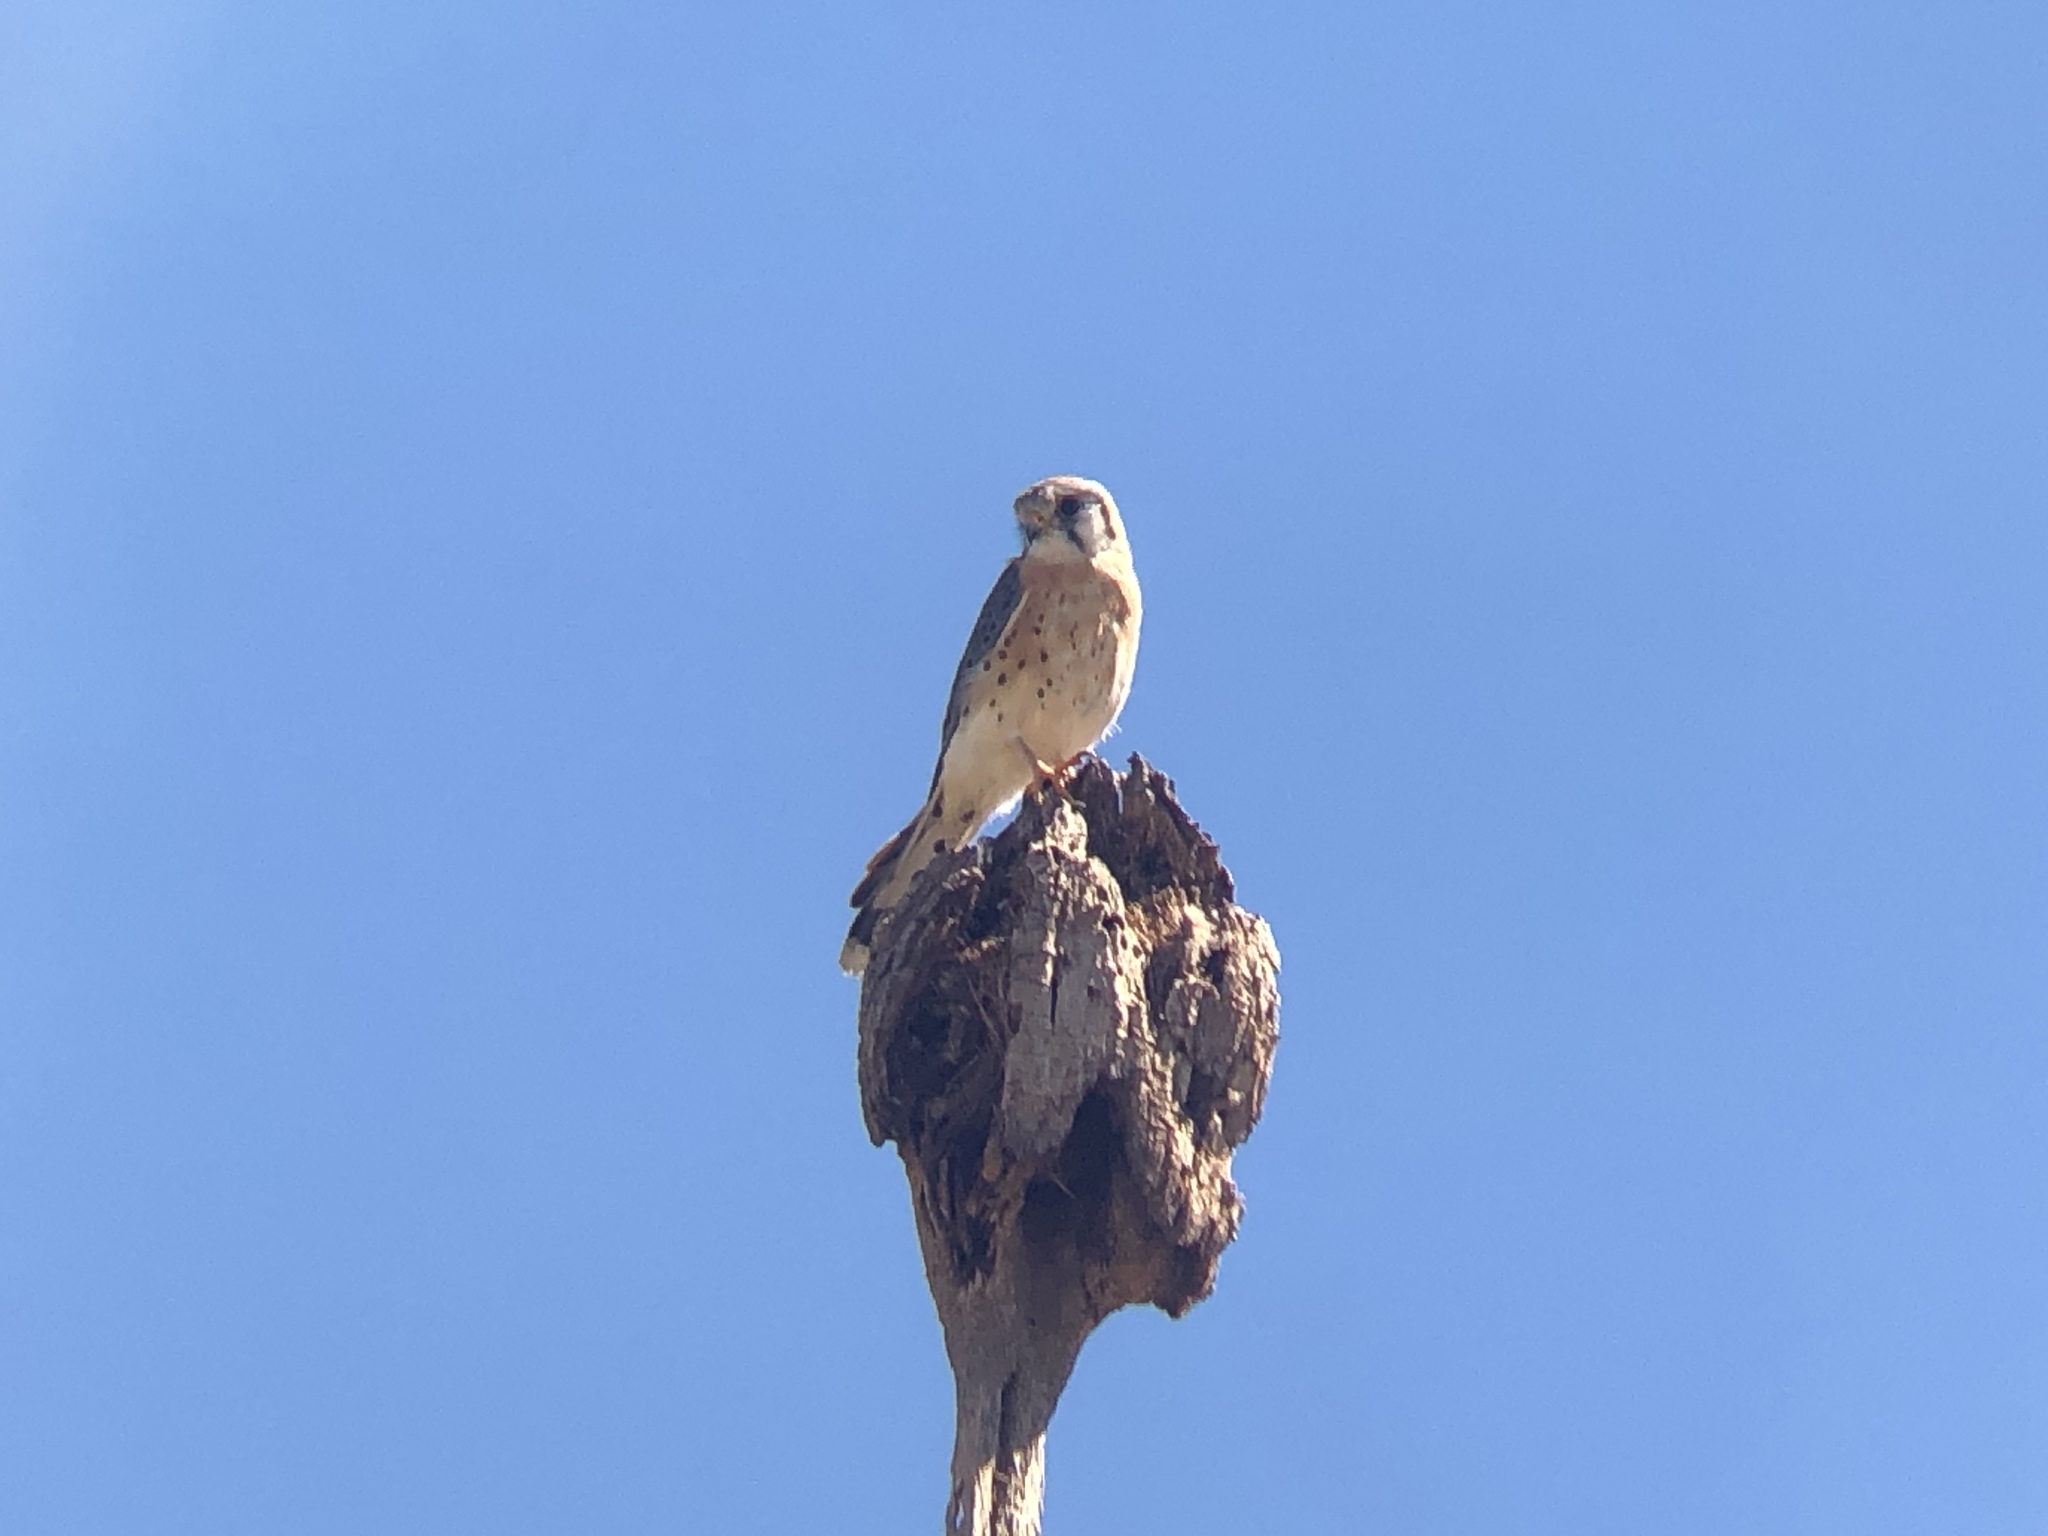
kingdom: Animalia
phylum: Chordata
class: Aves
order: Falconiformes
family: Falconidae
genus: Falco
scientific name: Falco sparverius
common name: American kestrel
